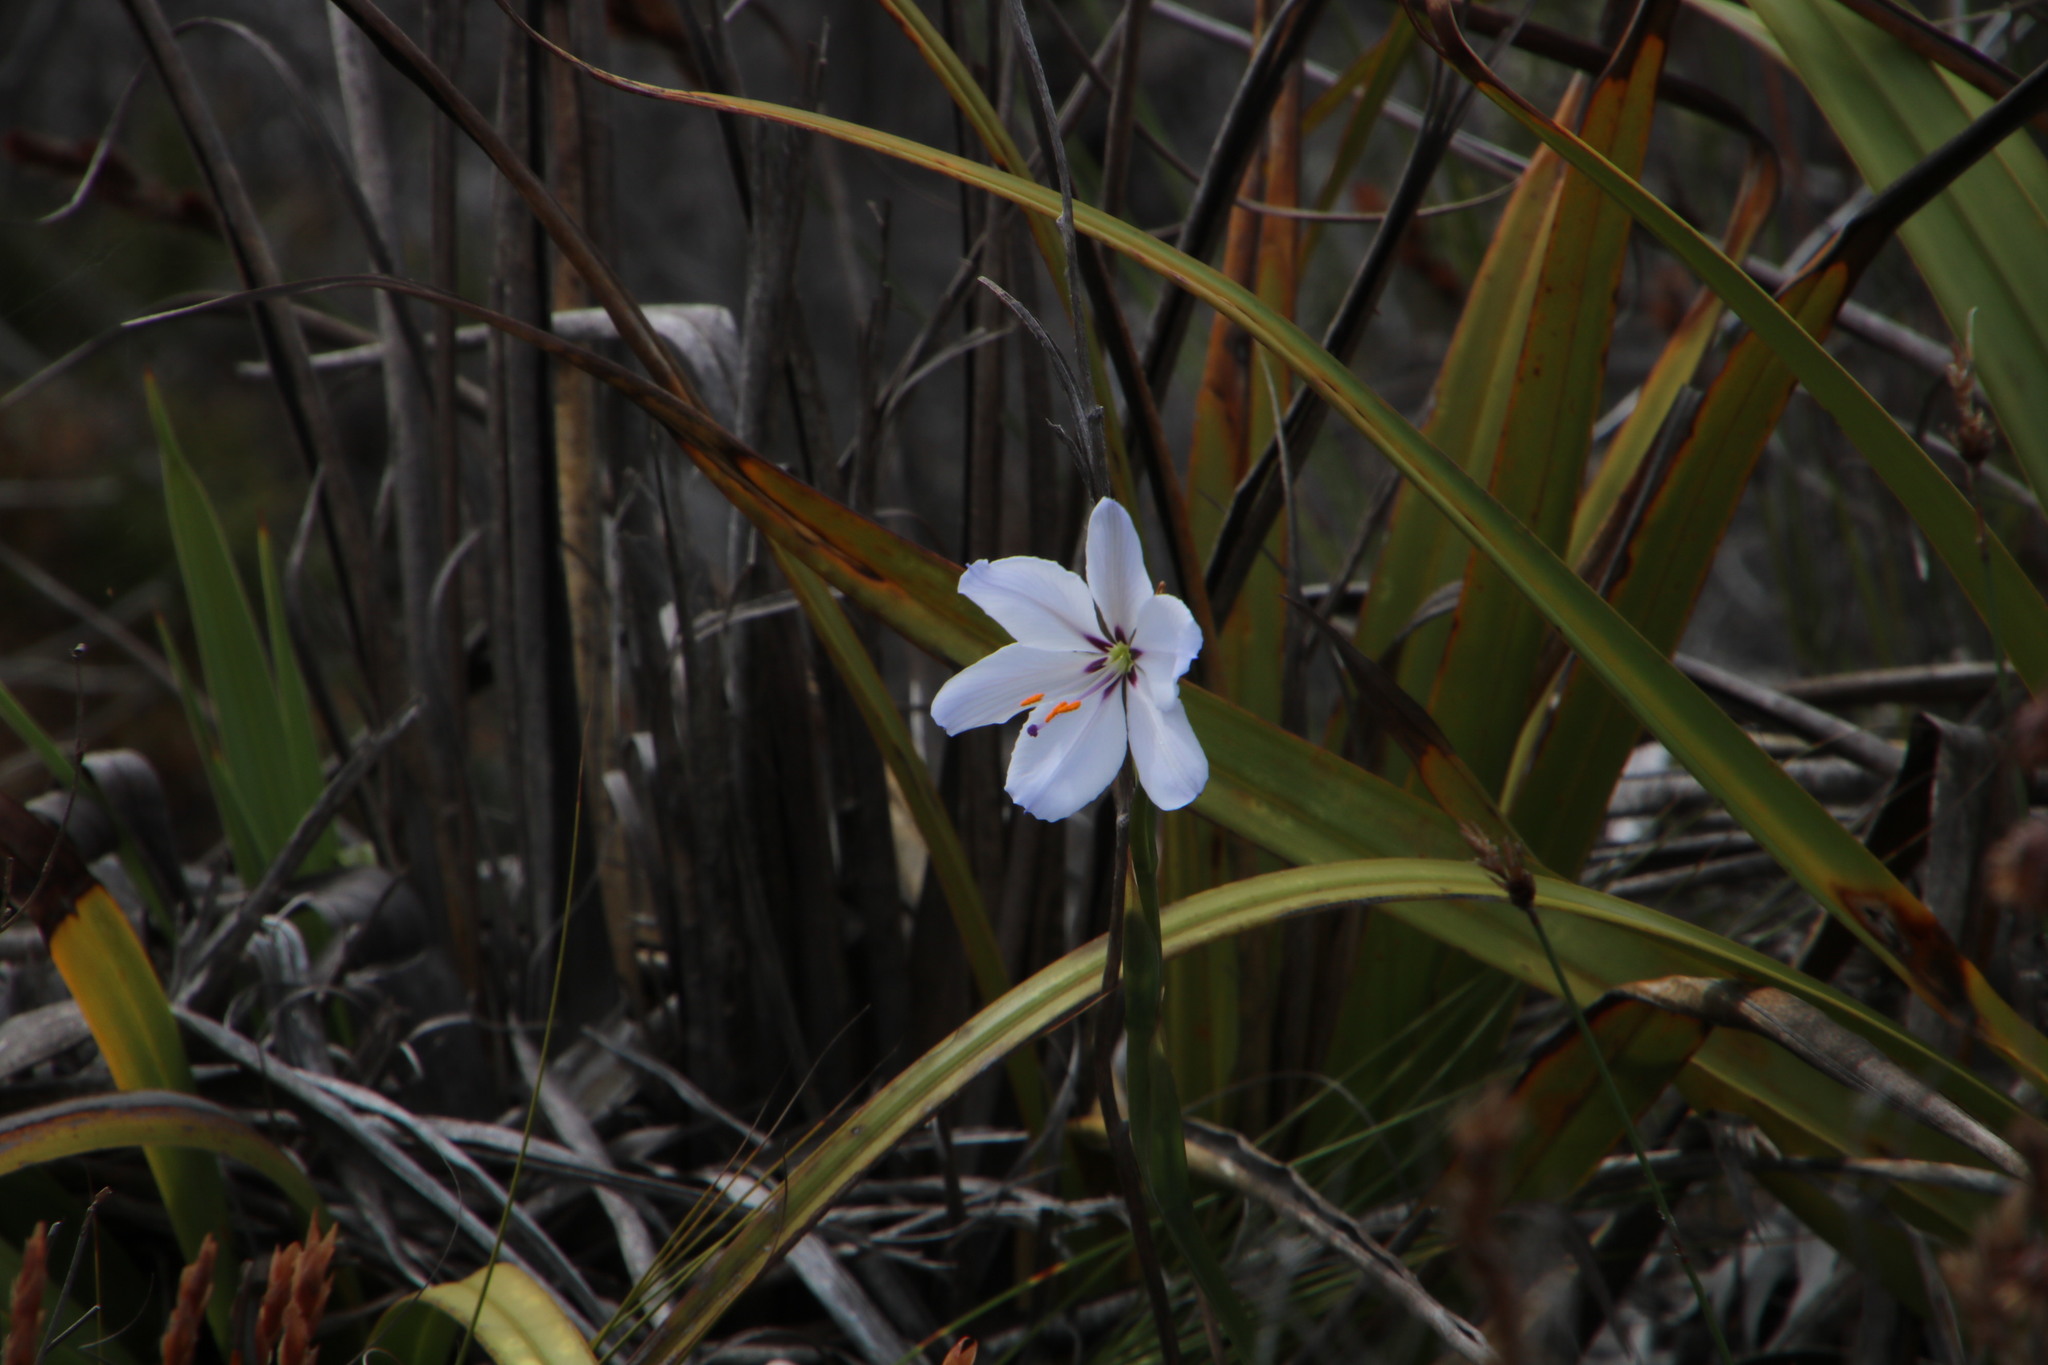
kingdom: Plantae
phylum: Tracheophyta
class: Liliopsida
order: Asparagales
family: Iridaceae
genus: Aristea
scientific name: Aristea spiralis
